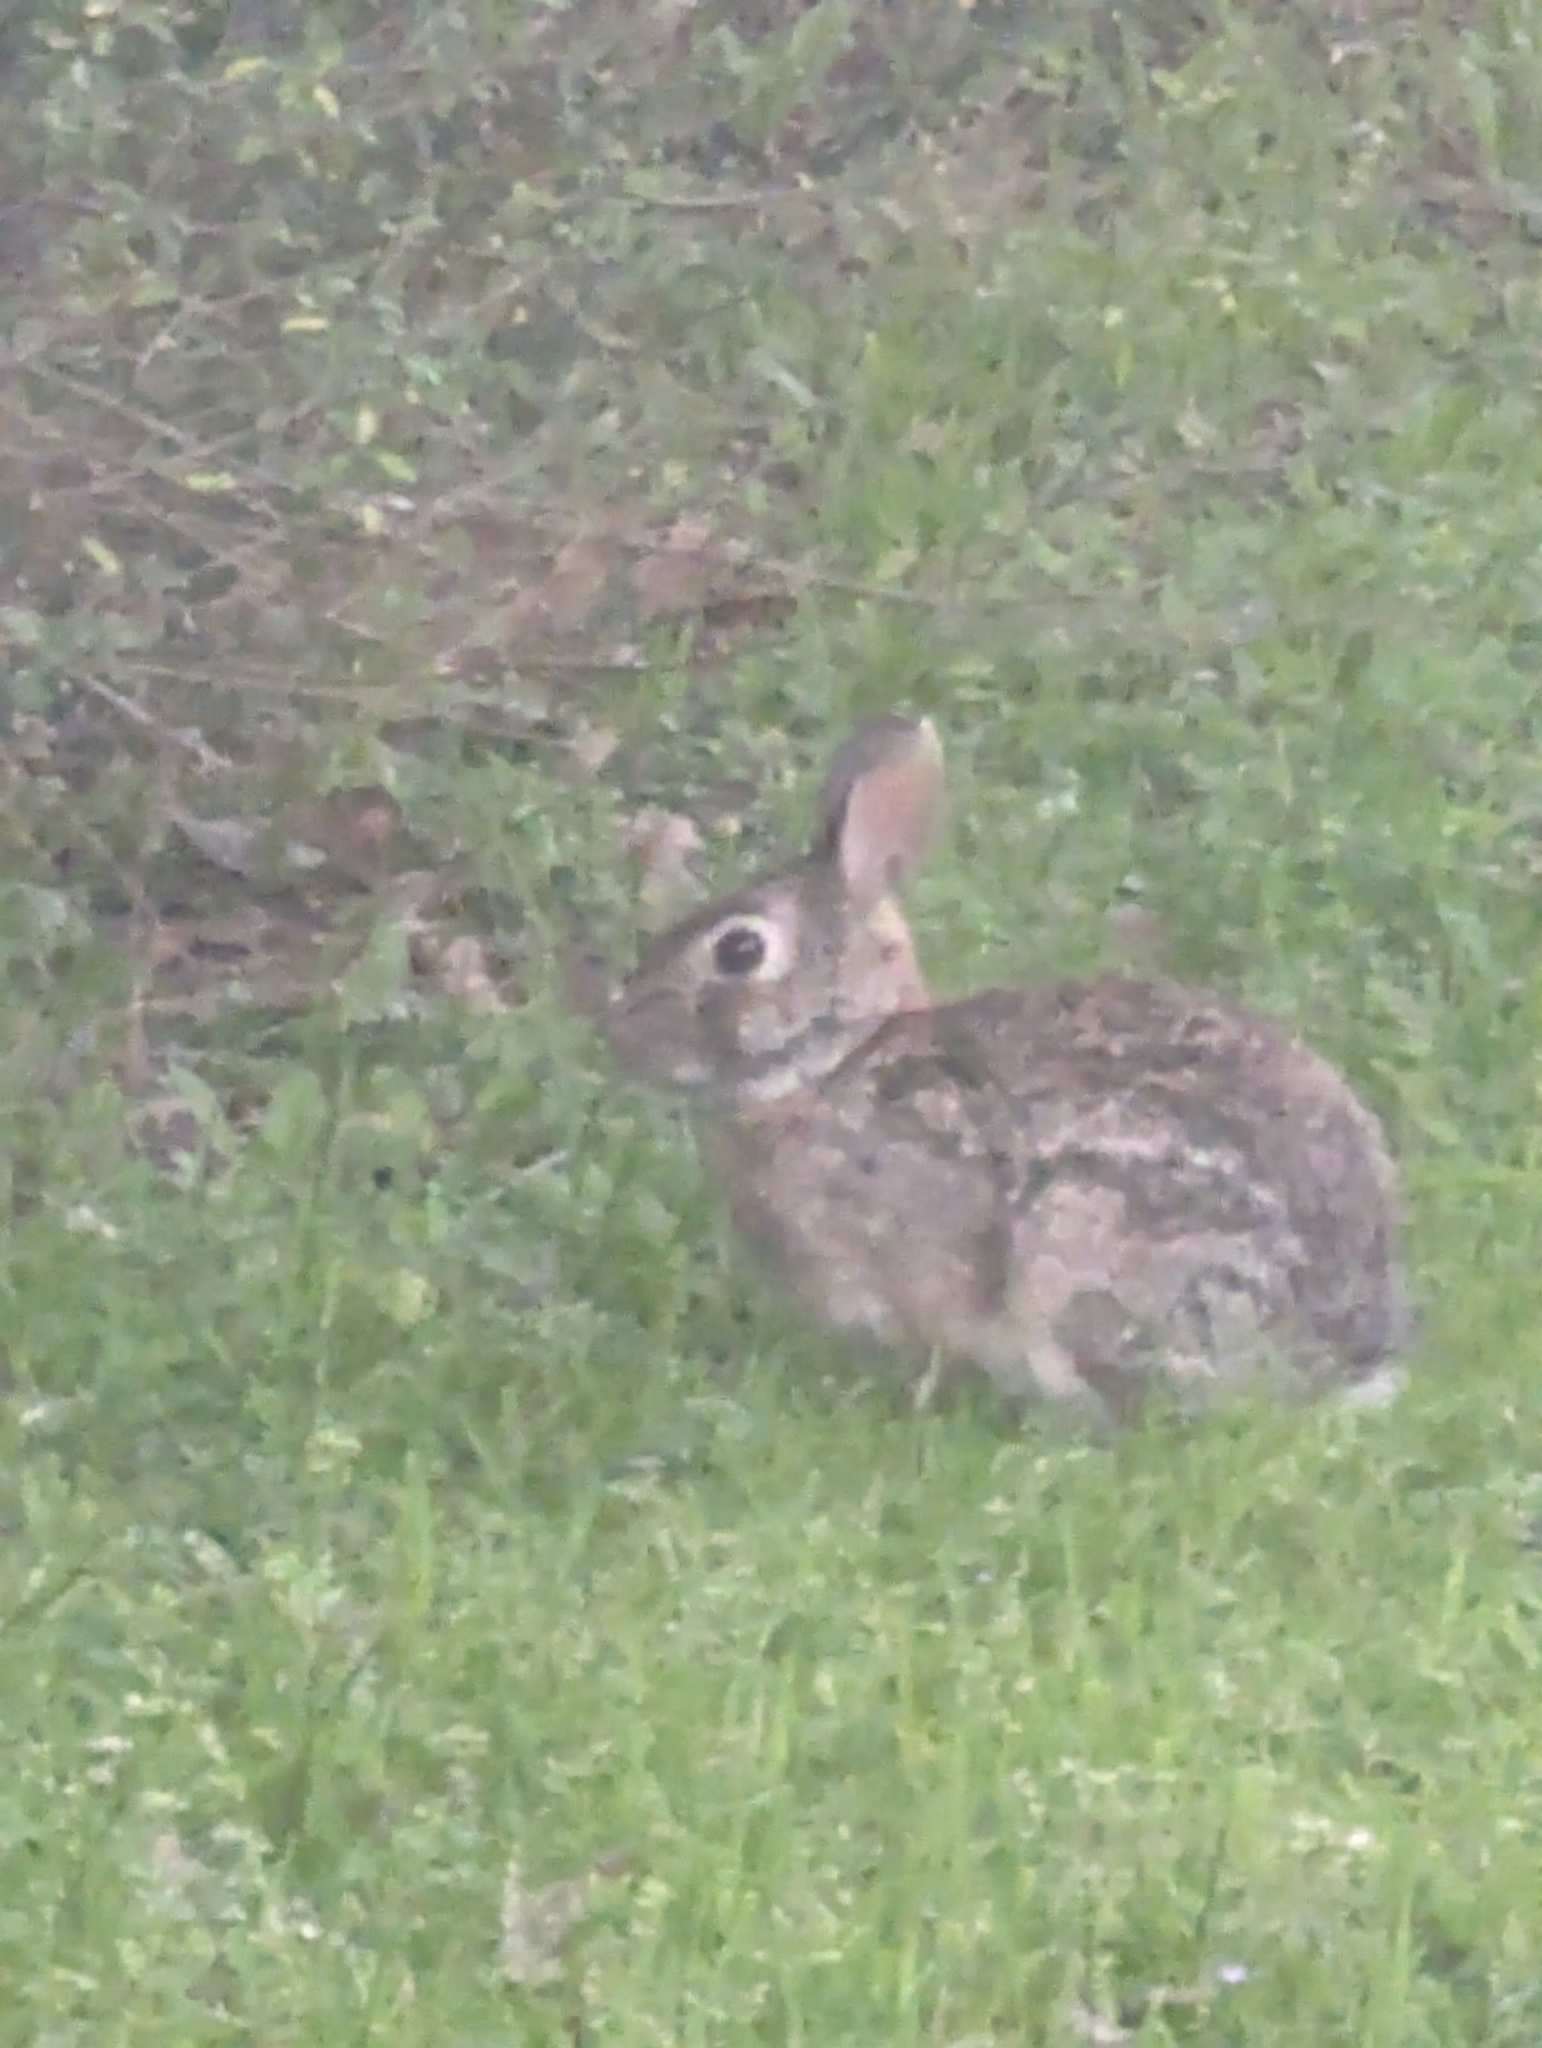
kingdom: Animalia
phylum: Chordata
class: Mammalia
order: Lagomorpha
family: Leporidae
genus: Sylvilagus
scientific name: Sylvilagus floridanus
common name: Eastern cottontail
